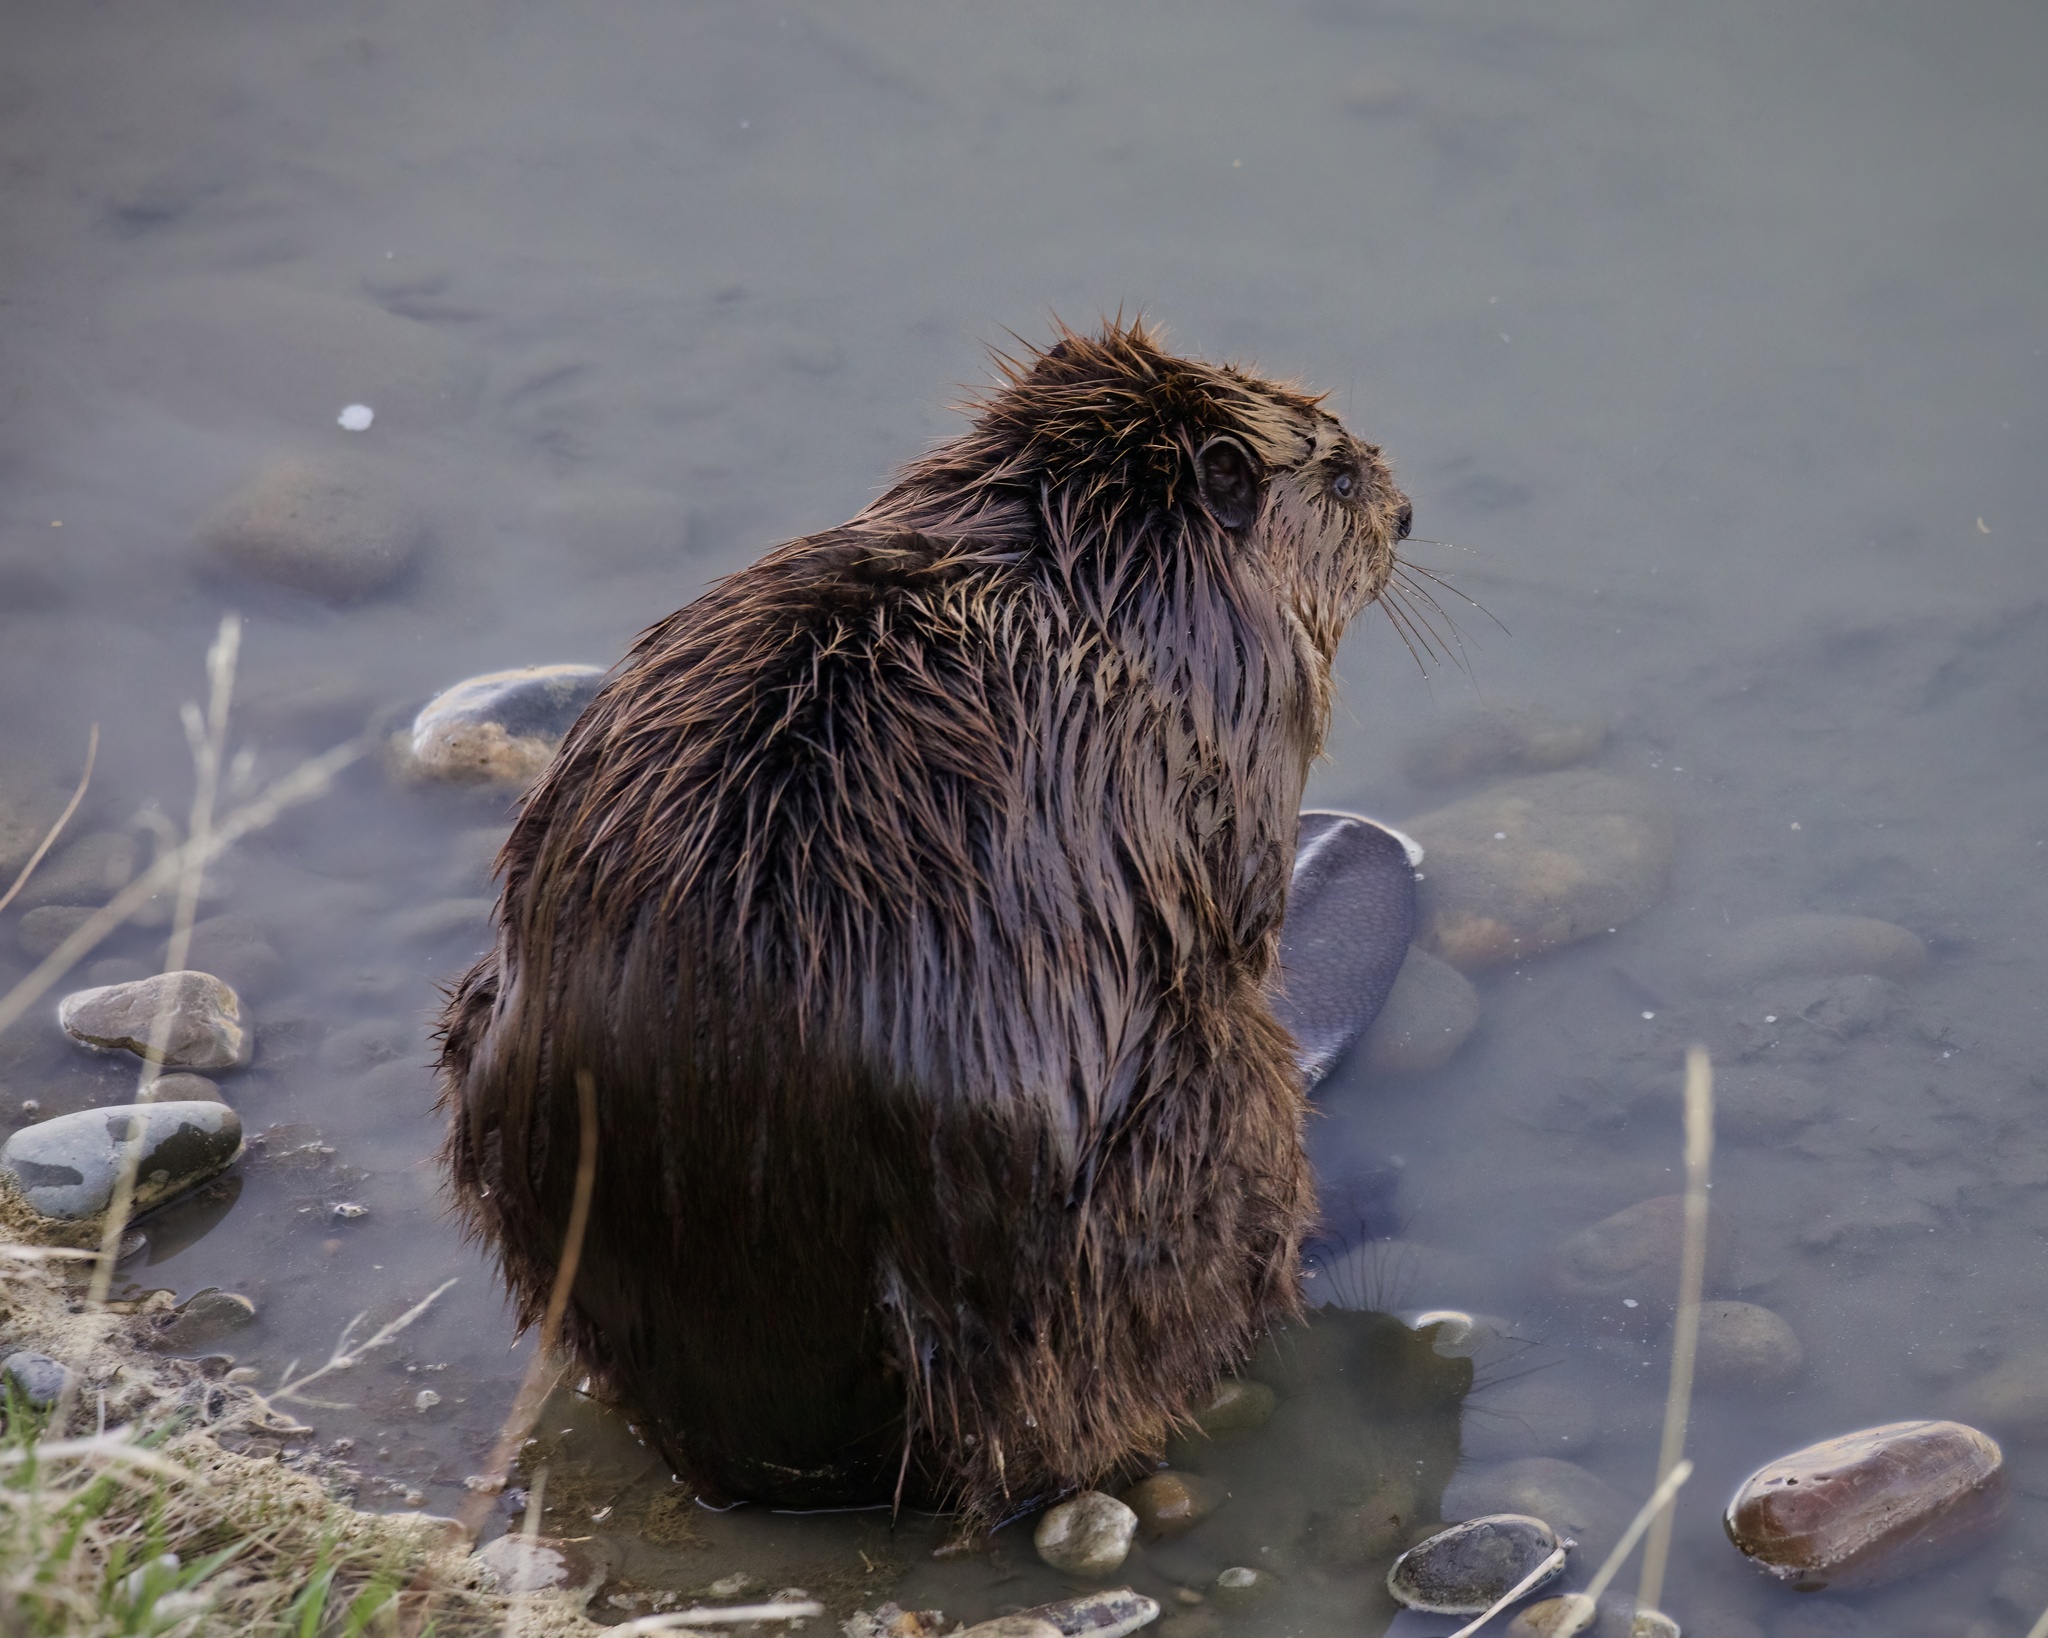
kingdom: Animalia
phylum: Chordata
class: Mammalia
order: Rodentia
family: Castoridae
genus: Castor
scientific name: Castor canadensis
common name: American beaver
